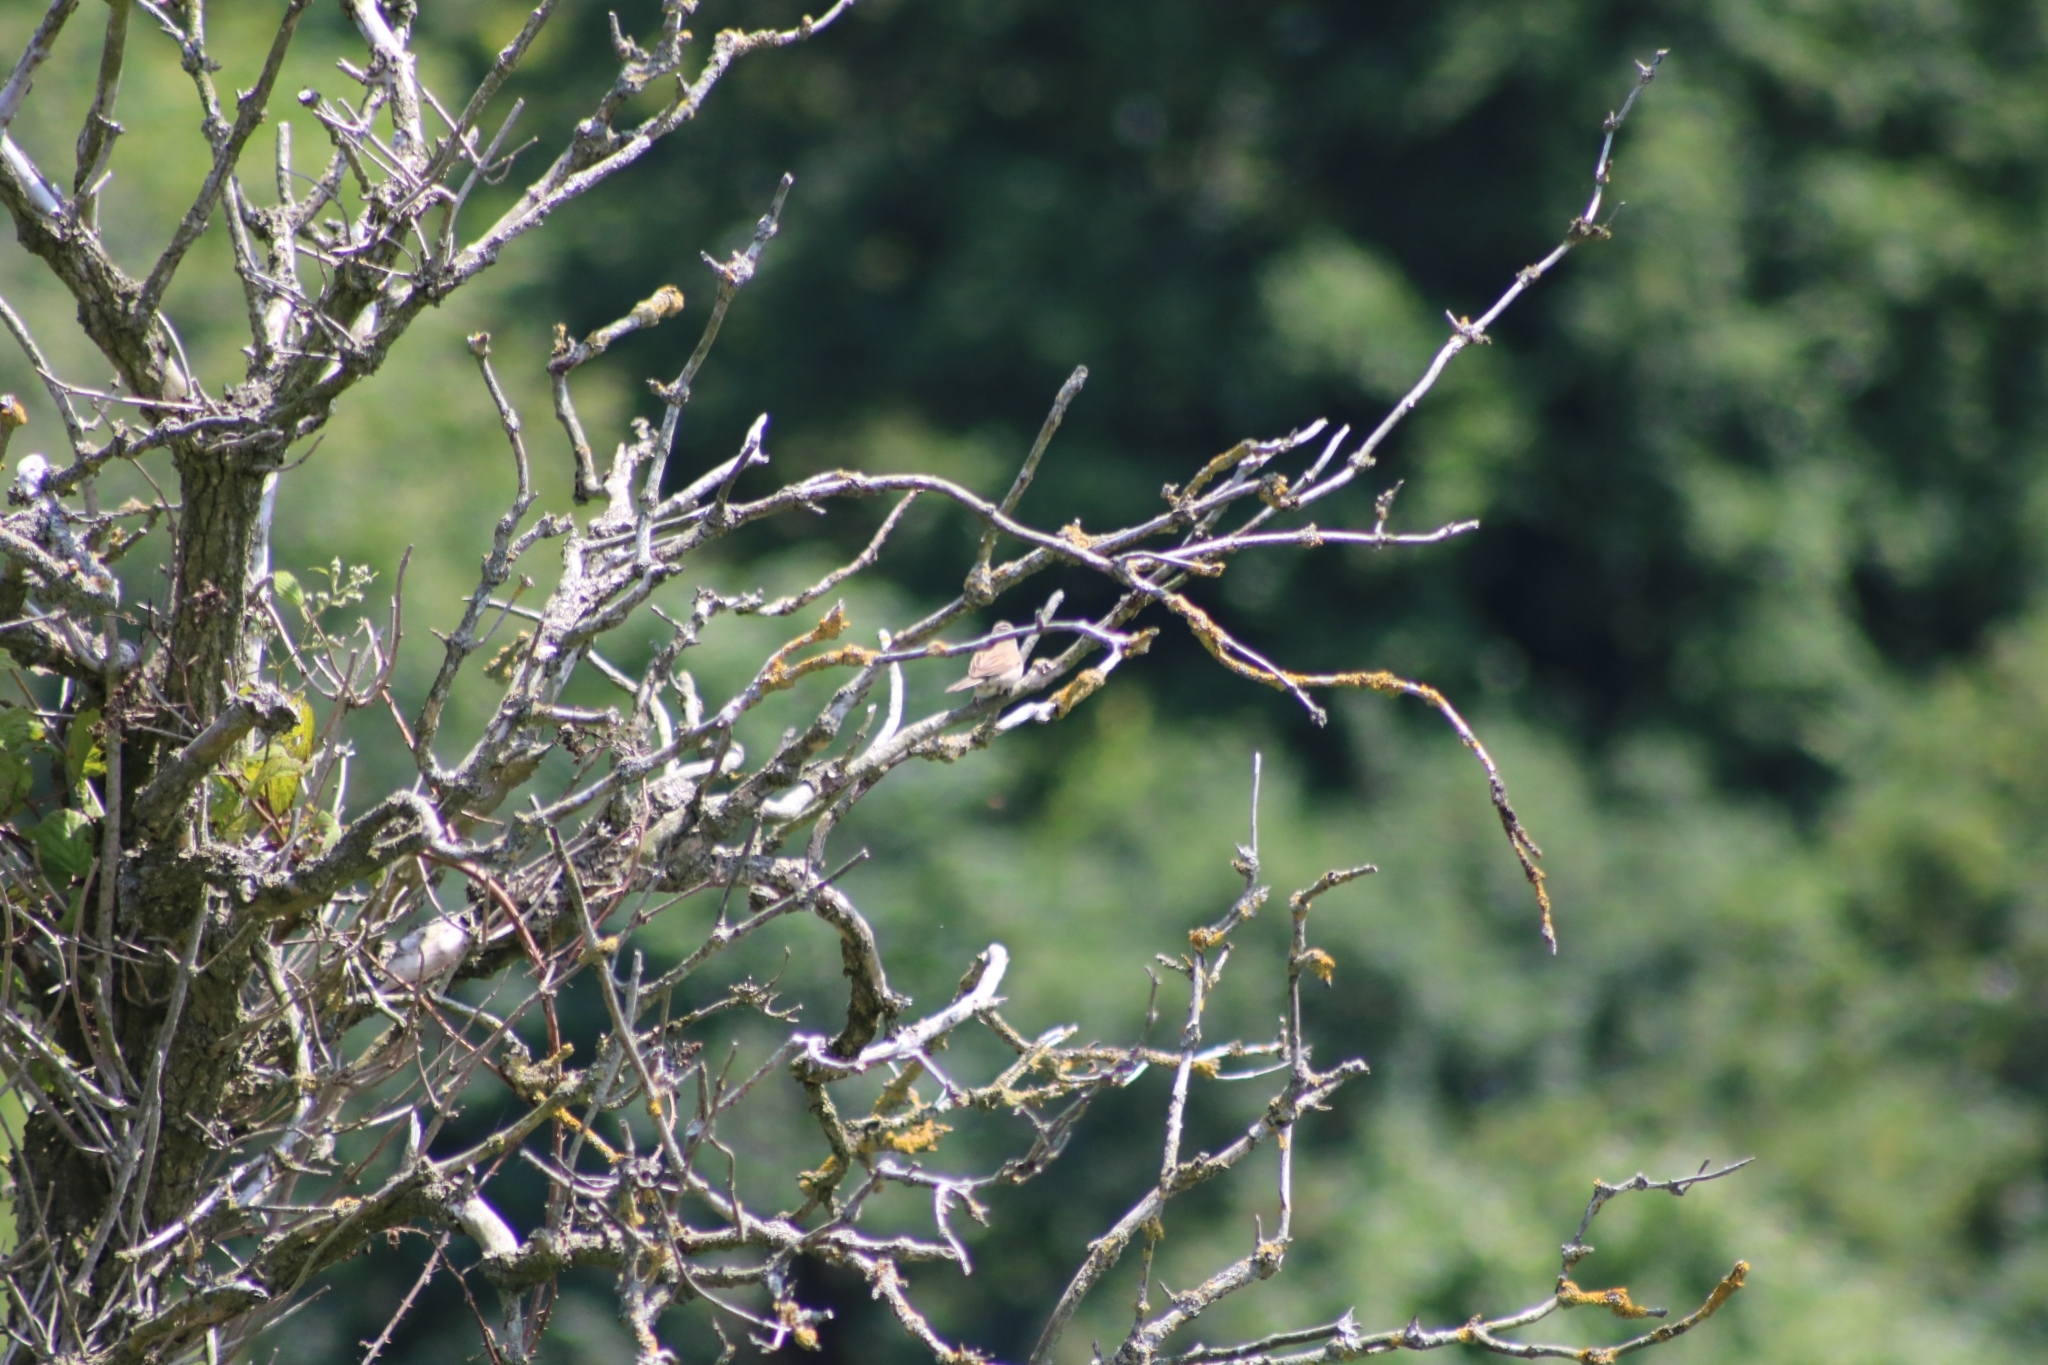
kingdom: Animalia
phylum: Chordata
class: Aves
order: Passeriformes
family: Sylviidae
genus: Sylvia
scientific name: Sylvia communis
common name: Common whitethroat
